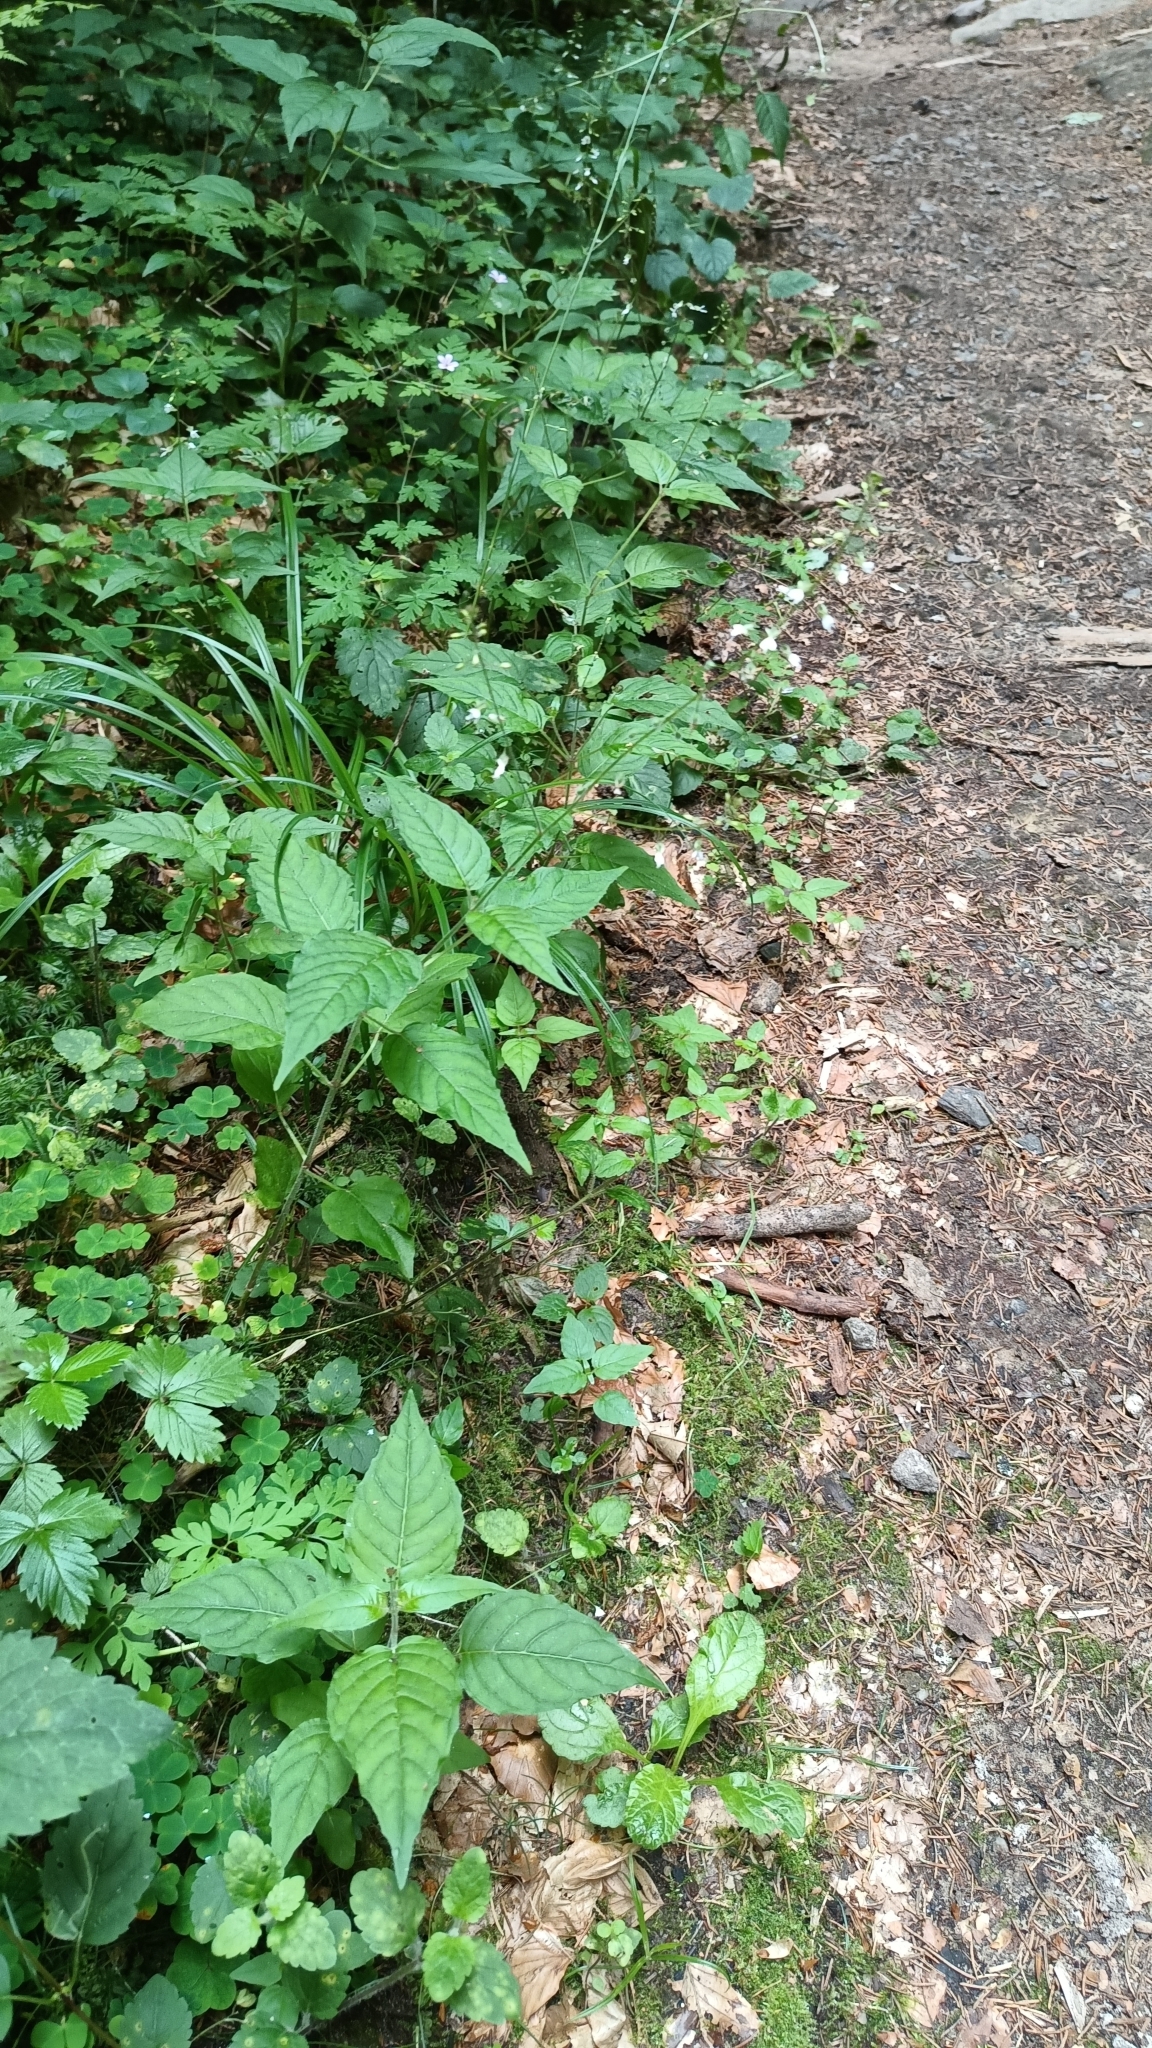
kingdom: Plantae
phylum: Tracheophyta
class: Magnoliopsida
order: Myrtales
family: Onagraceae
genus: Circaea
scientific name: Circaea lutetiana
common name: Enchanter's-nightshade
